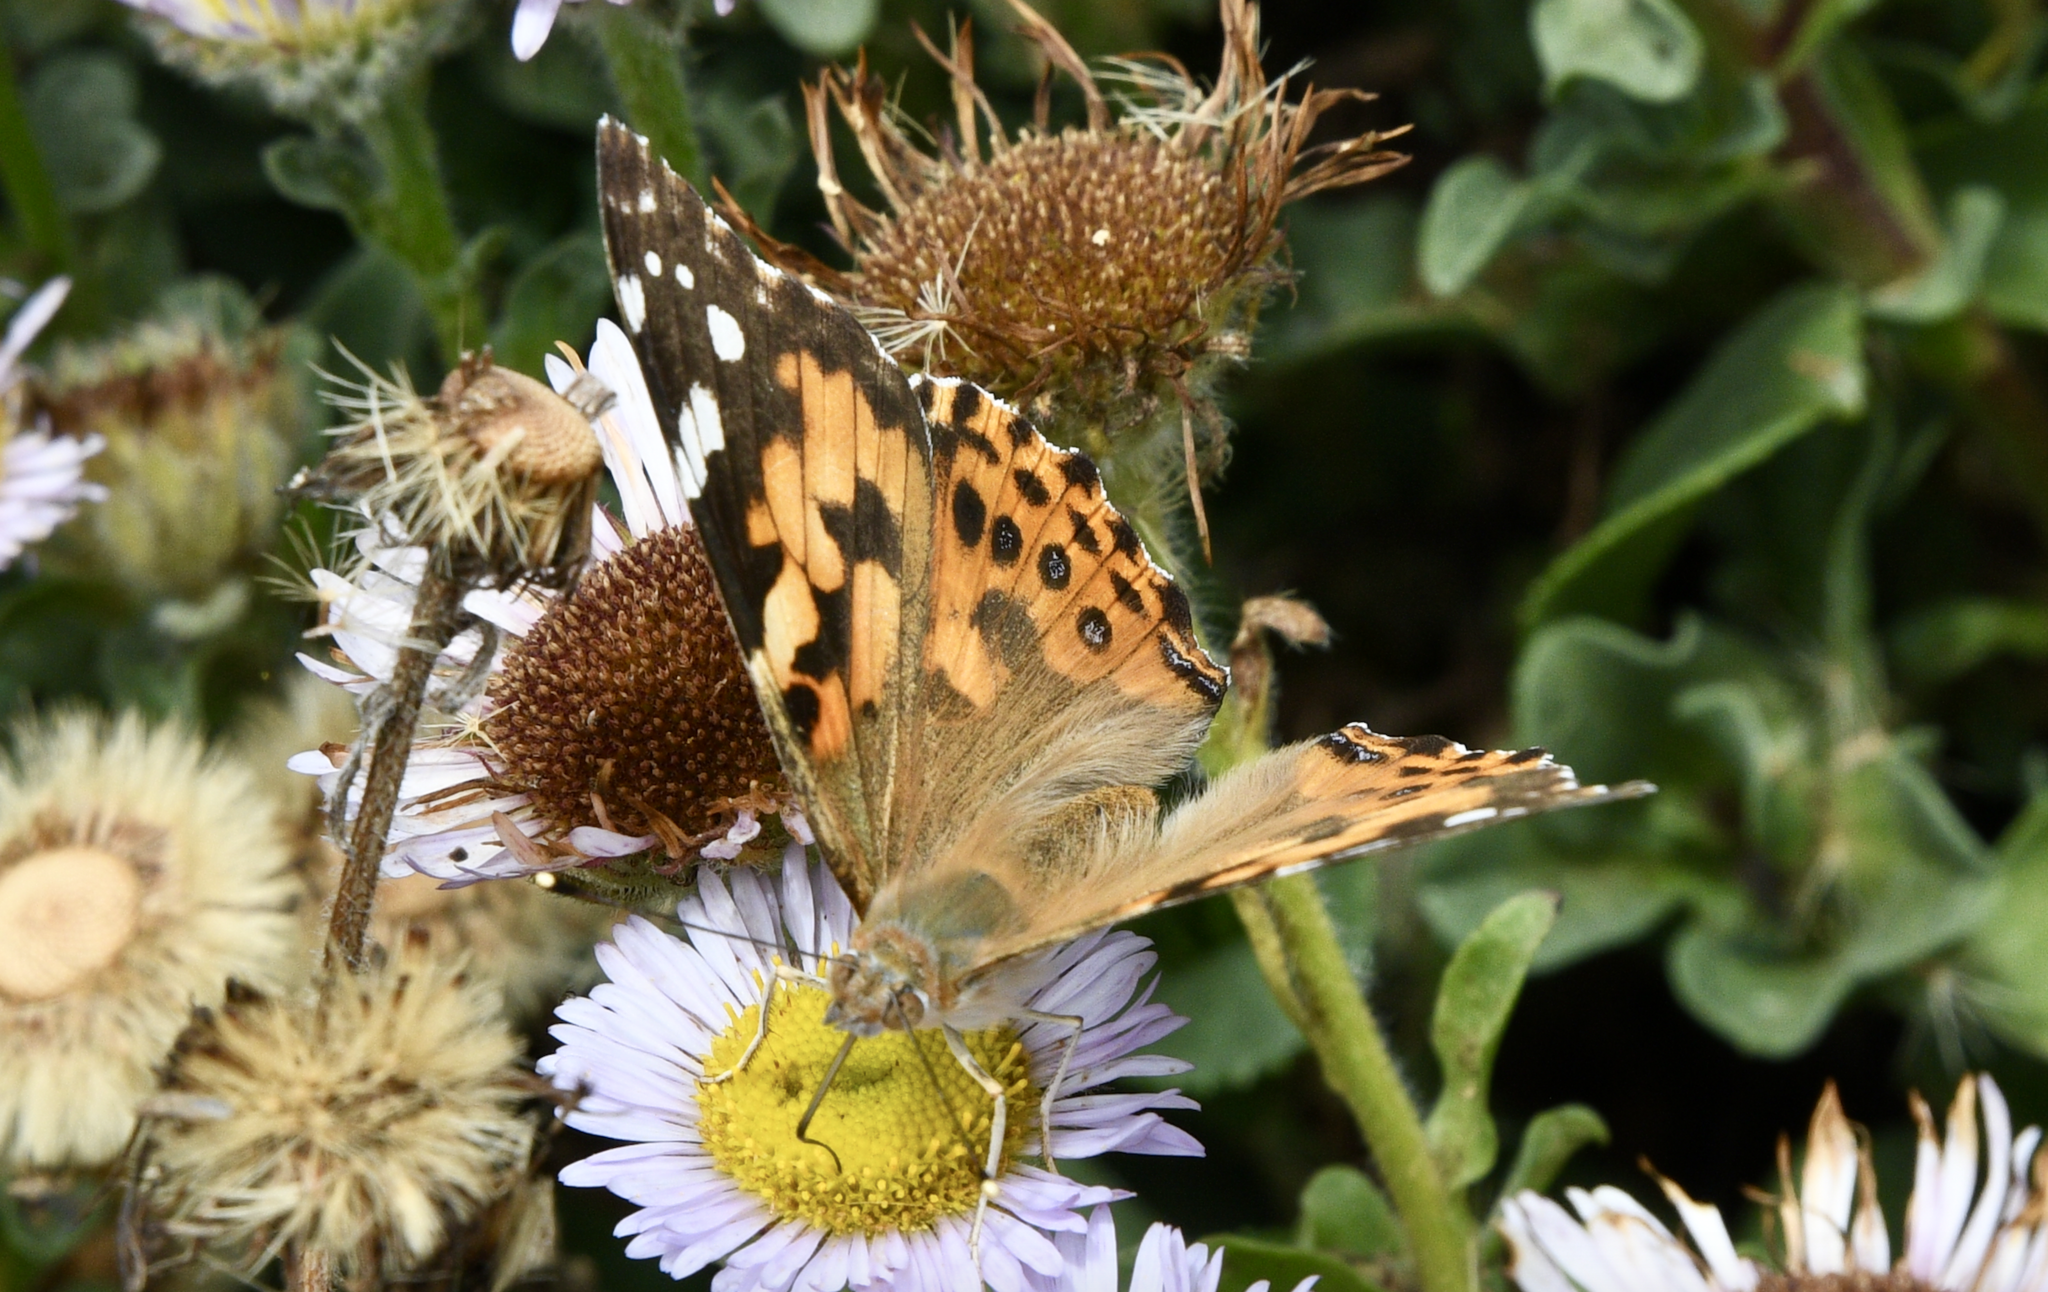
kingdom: Animalia
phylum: Arthropoda
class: Insecta
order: Lepidoptera
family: Nymphalidae
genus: Vanessa
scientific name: Vanessa cardui
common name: Painted lady
